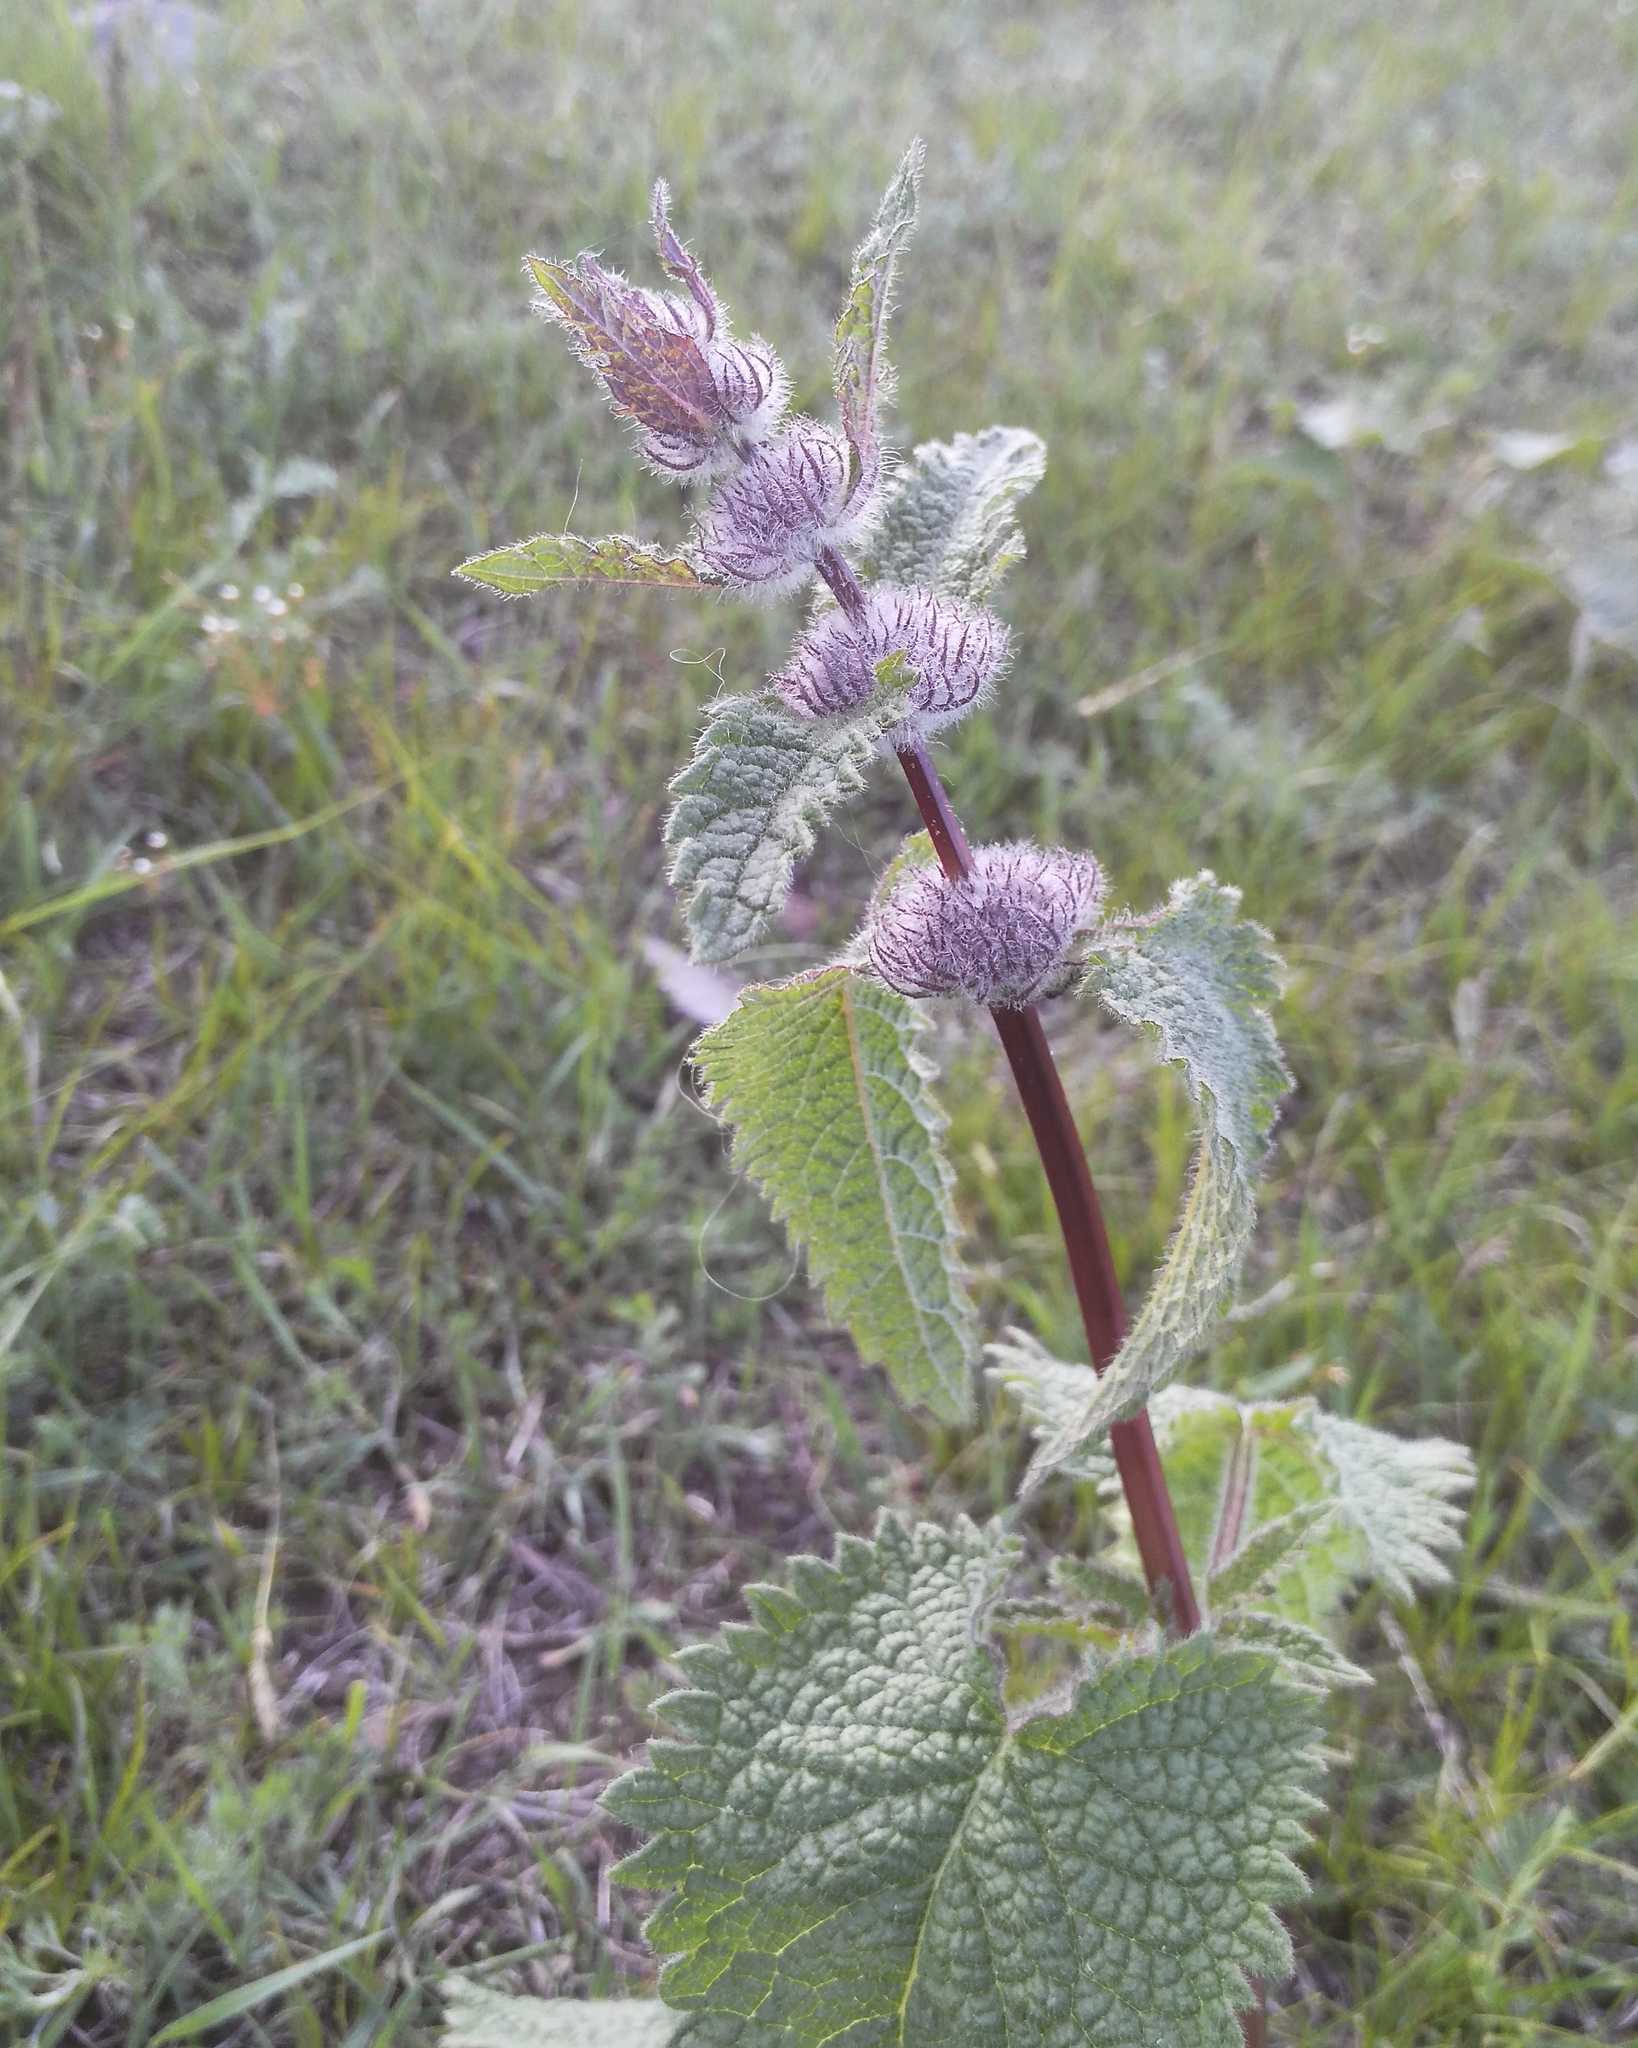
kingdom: Plantae
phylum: Tracheophyta
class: Magnoliopsida
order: Lamiales
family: Lamiaceae
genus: Phlomoides
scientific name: Phlomoides tuberosa
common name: Tuberous jerusalem sage
